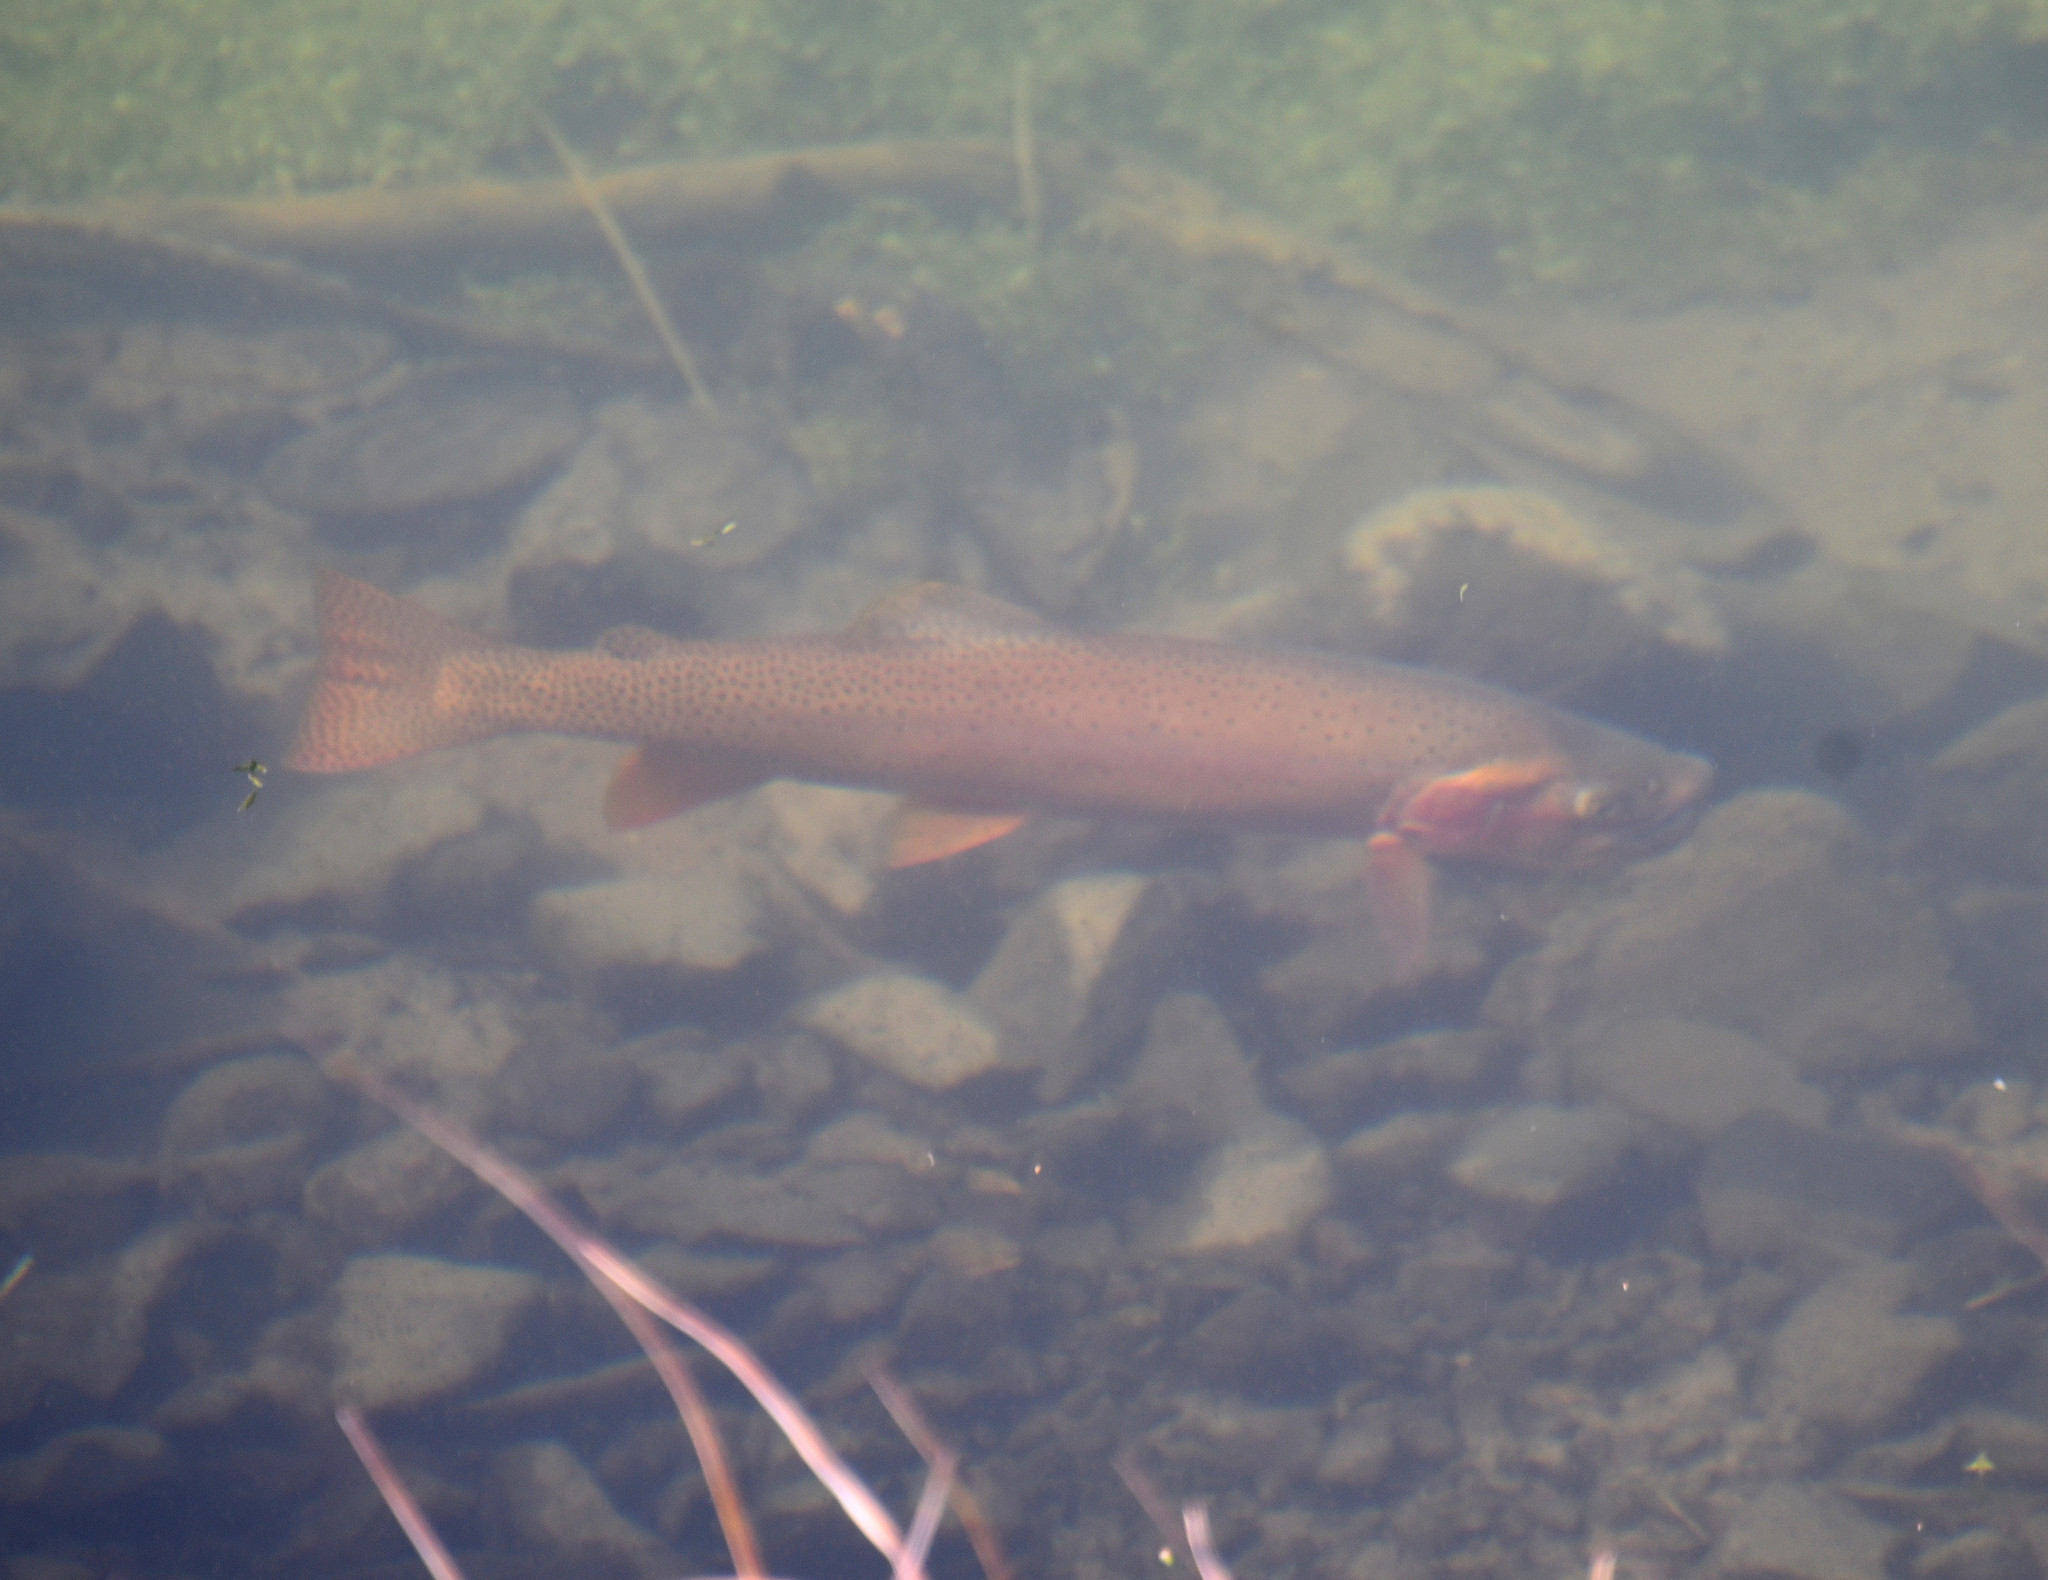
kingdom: Animalia
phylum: Chordata
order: Salmoniformes
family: Salmonidae
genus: Oncorhynchus
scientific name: Oncorhynchus virginalis
